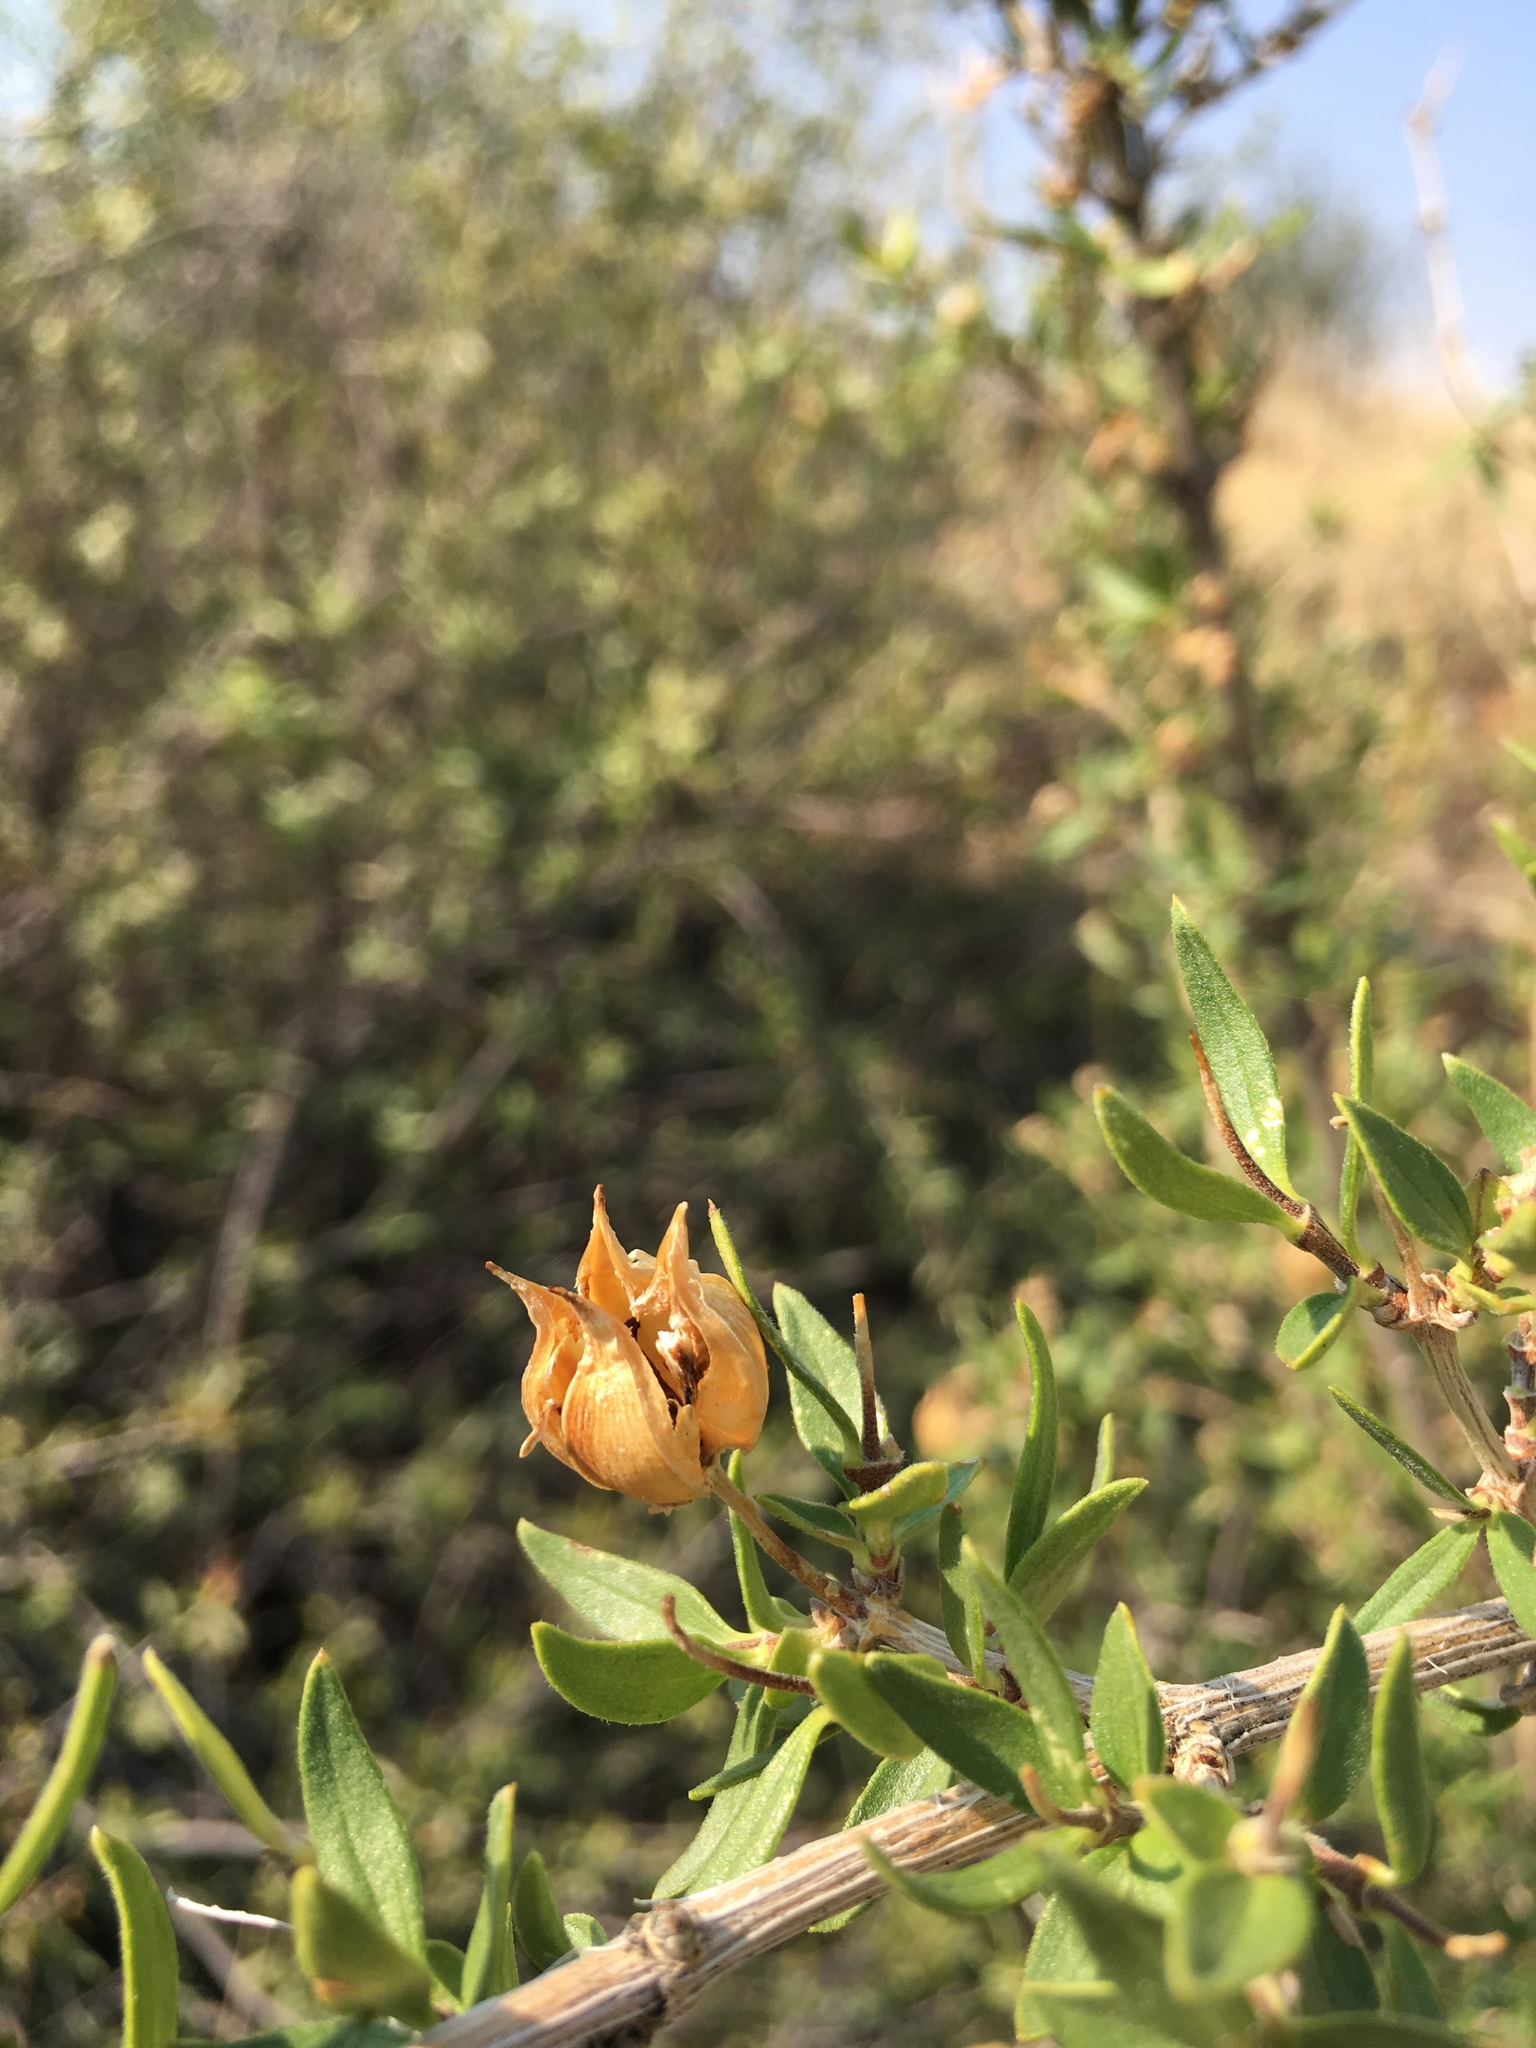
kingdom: Plantae
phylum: Tracheophyta
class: Magnoliopsida
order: Cornales
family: Hydrangeaceae
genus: Fendlera
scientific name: Fendlera rupicola
